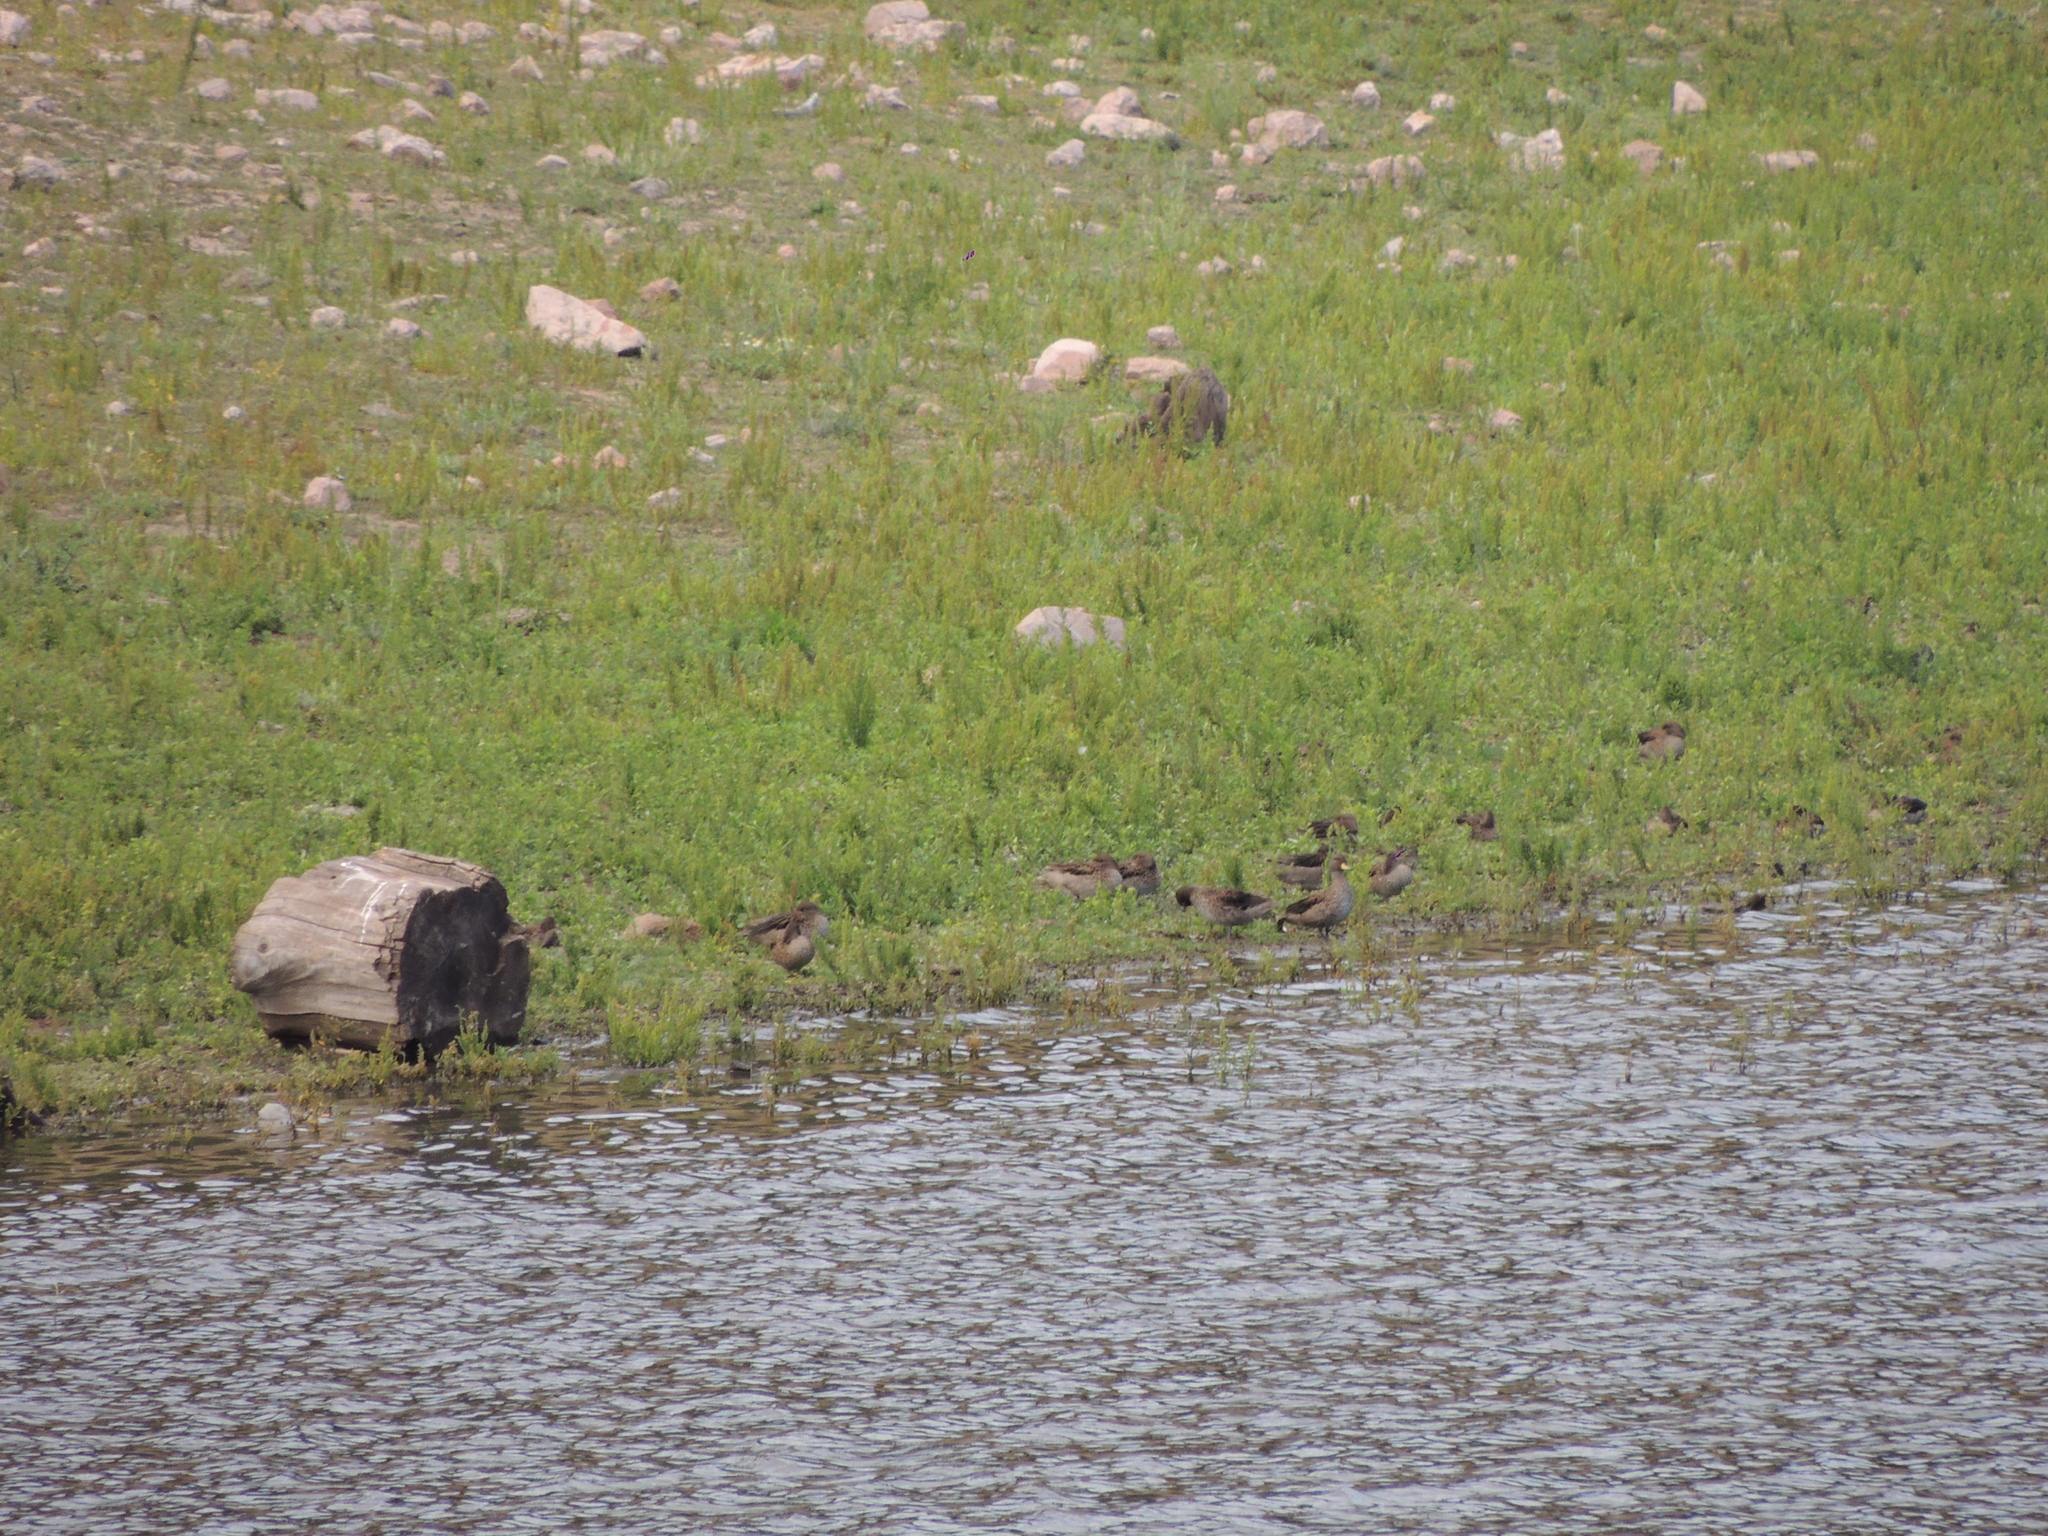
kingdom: Animalia
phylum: Chordata
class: Aves
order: Anseriformes
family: Anatidae
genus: Anas
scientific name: Anas flavirostris
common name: Yellow-billed teal
